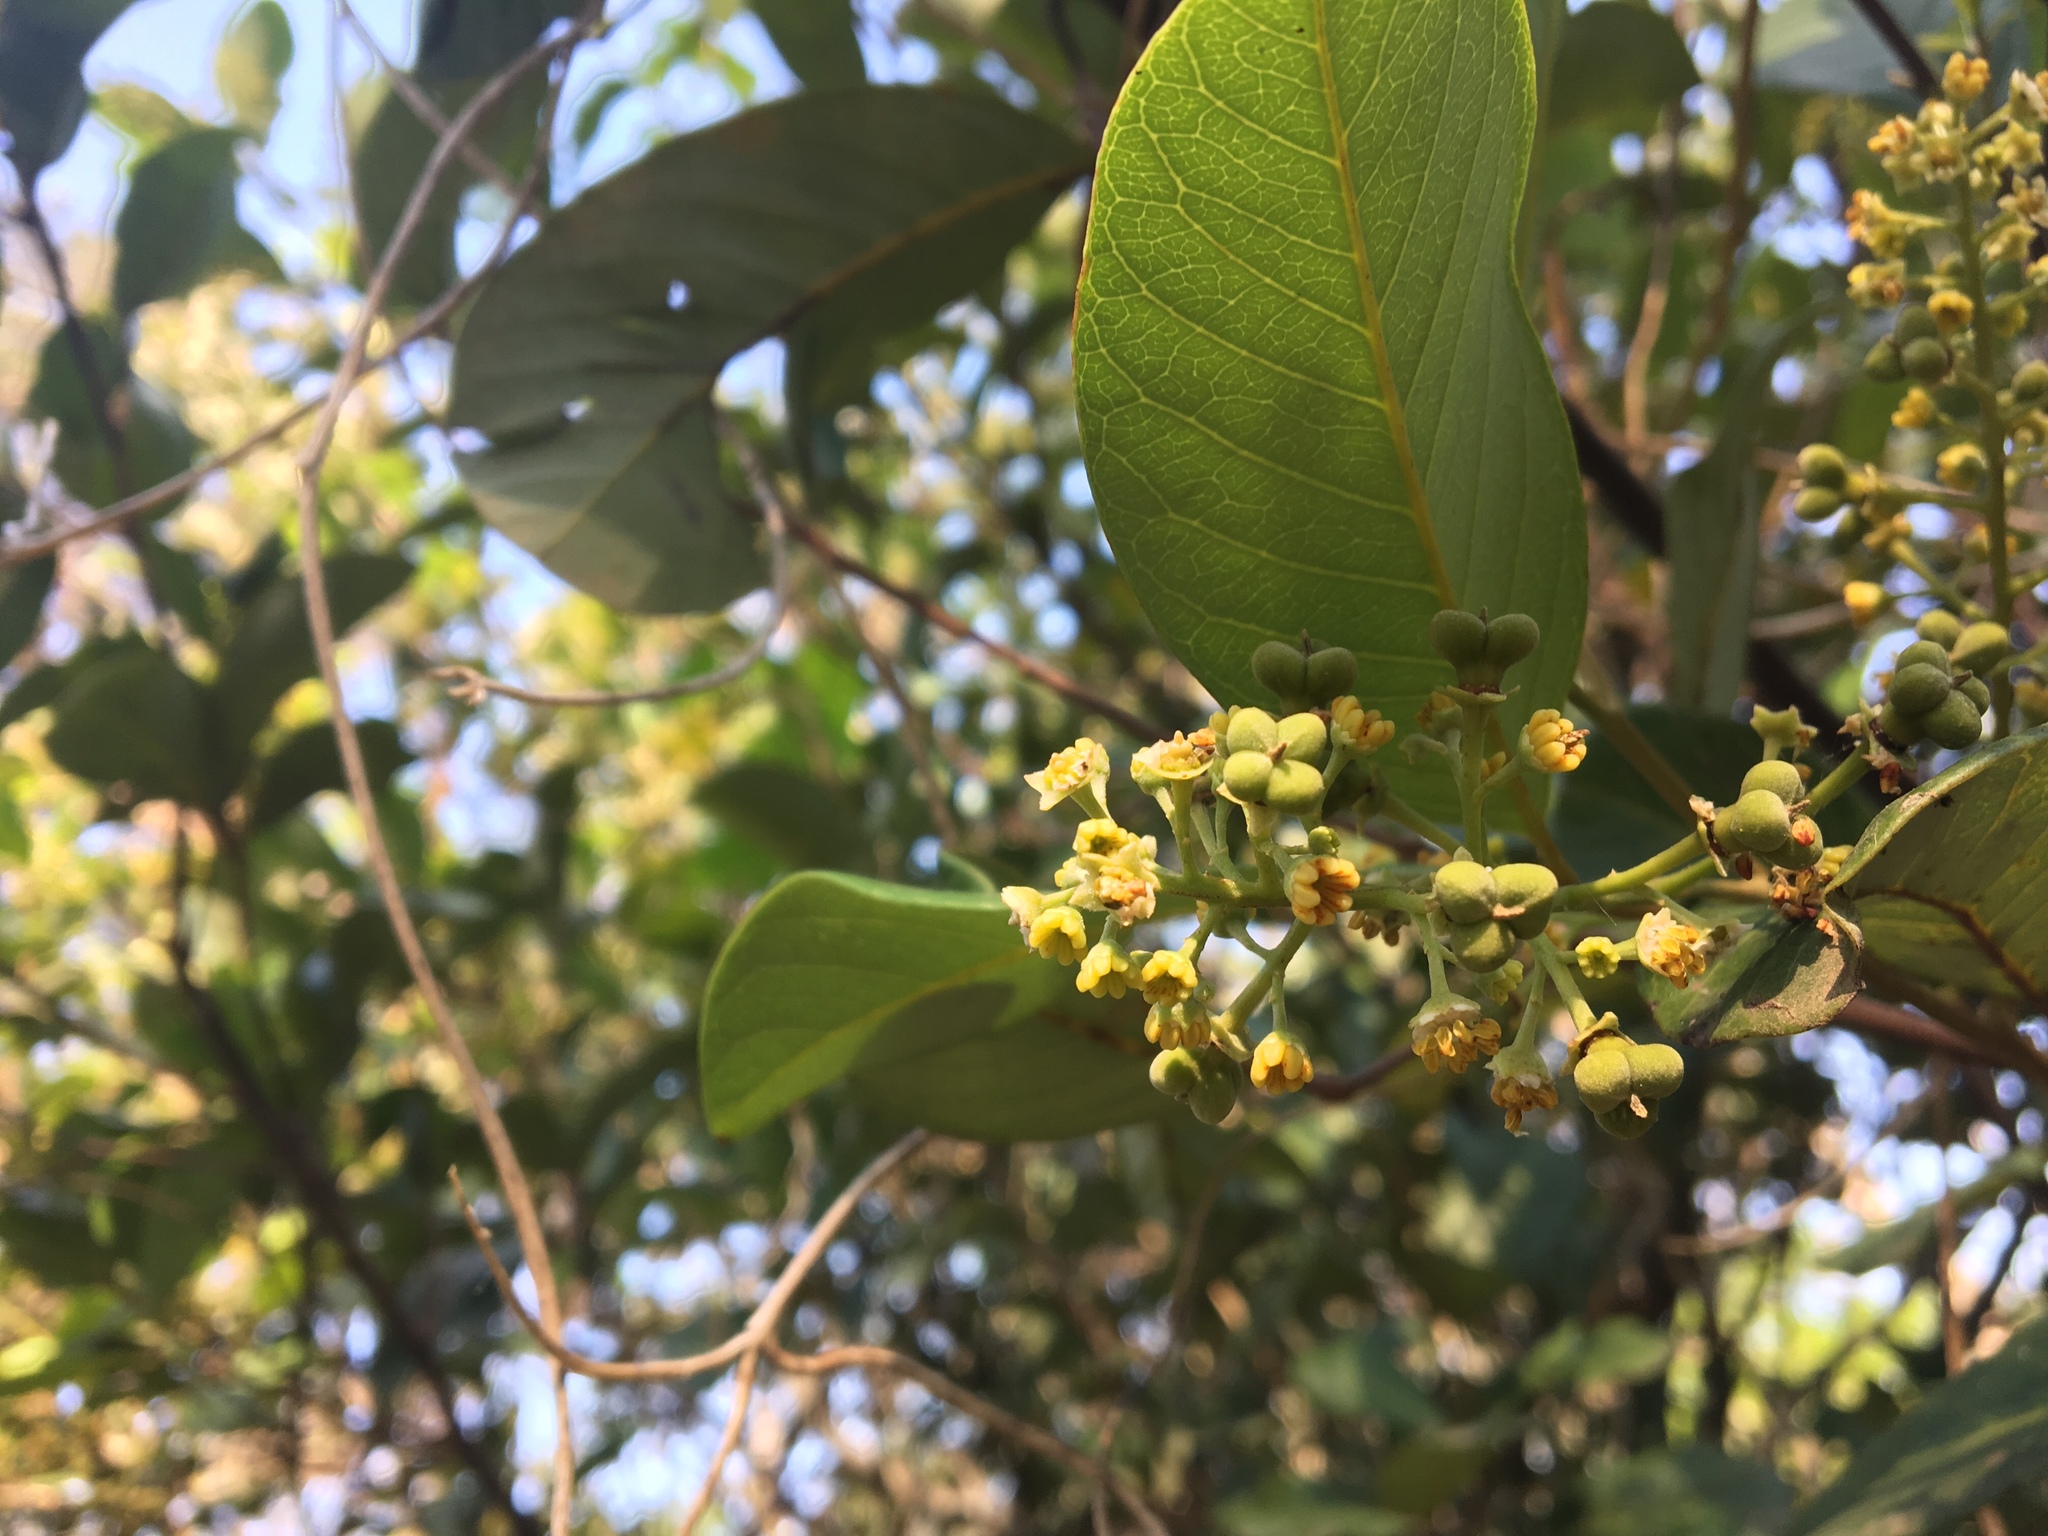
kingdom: Plantae
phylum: Tracheophyta
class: Magnoliopsida
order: Sapindales
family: Sapindaceae
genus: Alectryon
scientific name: Alectryon coriaceus
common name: Beach alectryon
